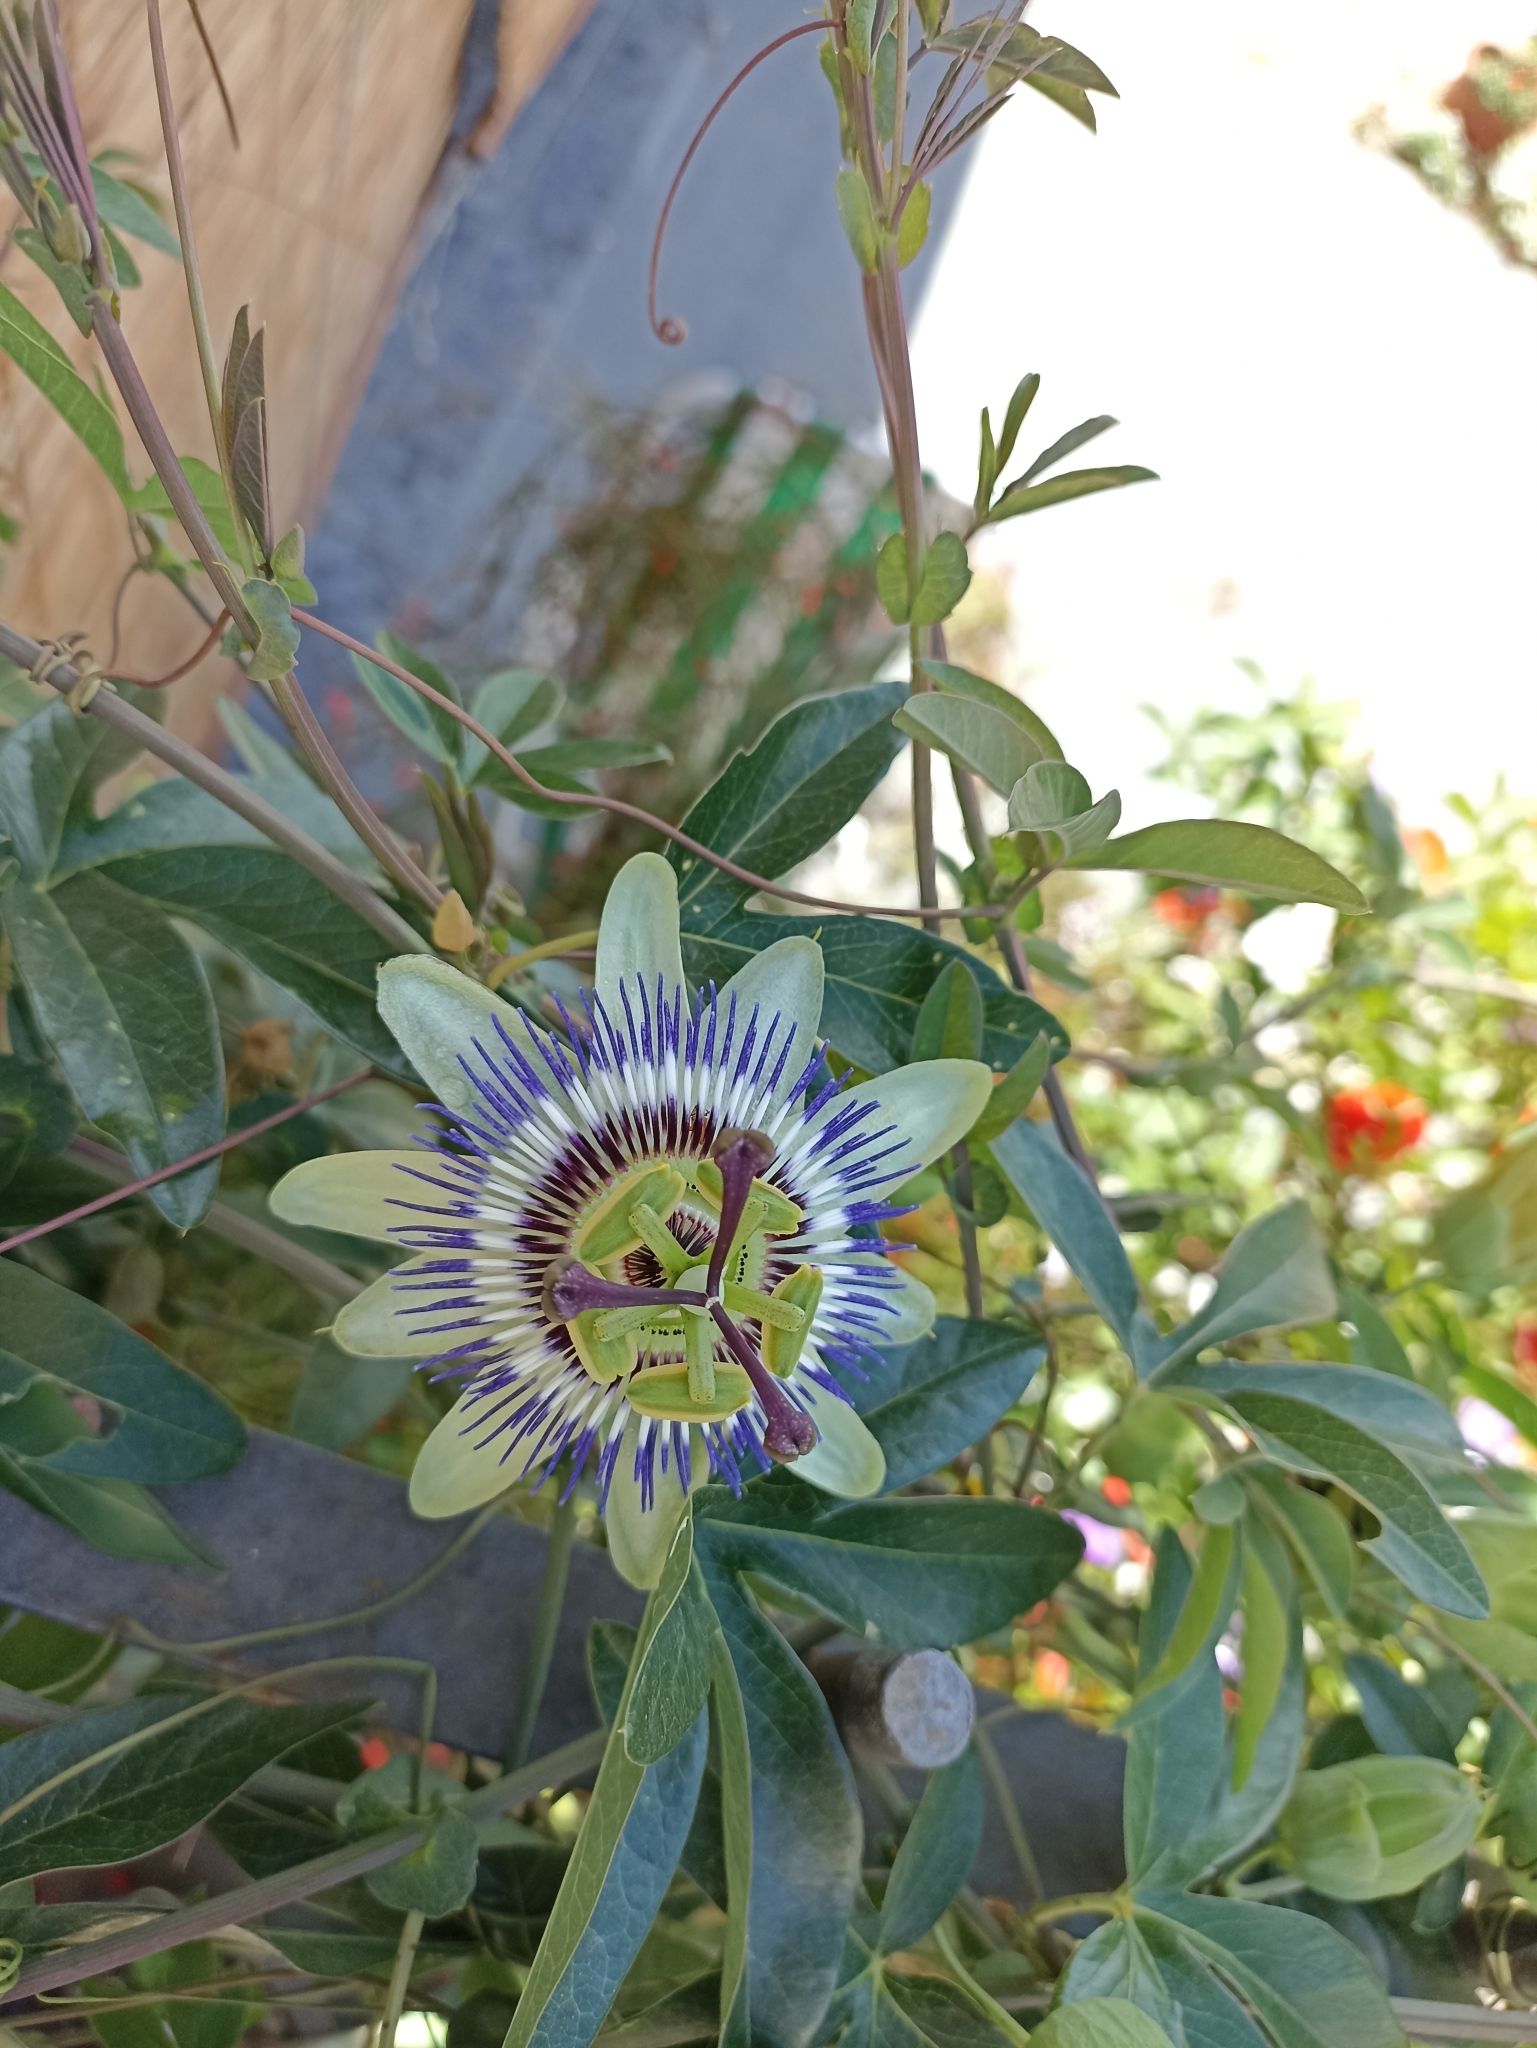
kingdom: Plantae
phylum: Tracheophyta
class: Magnoliopsida
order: Malpighiales
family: Passifloraceae
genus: Passiflora
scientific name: Passiflora caerulea
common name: Blue passionflower
